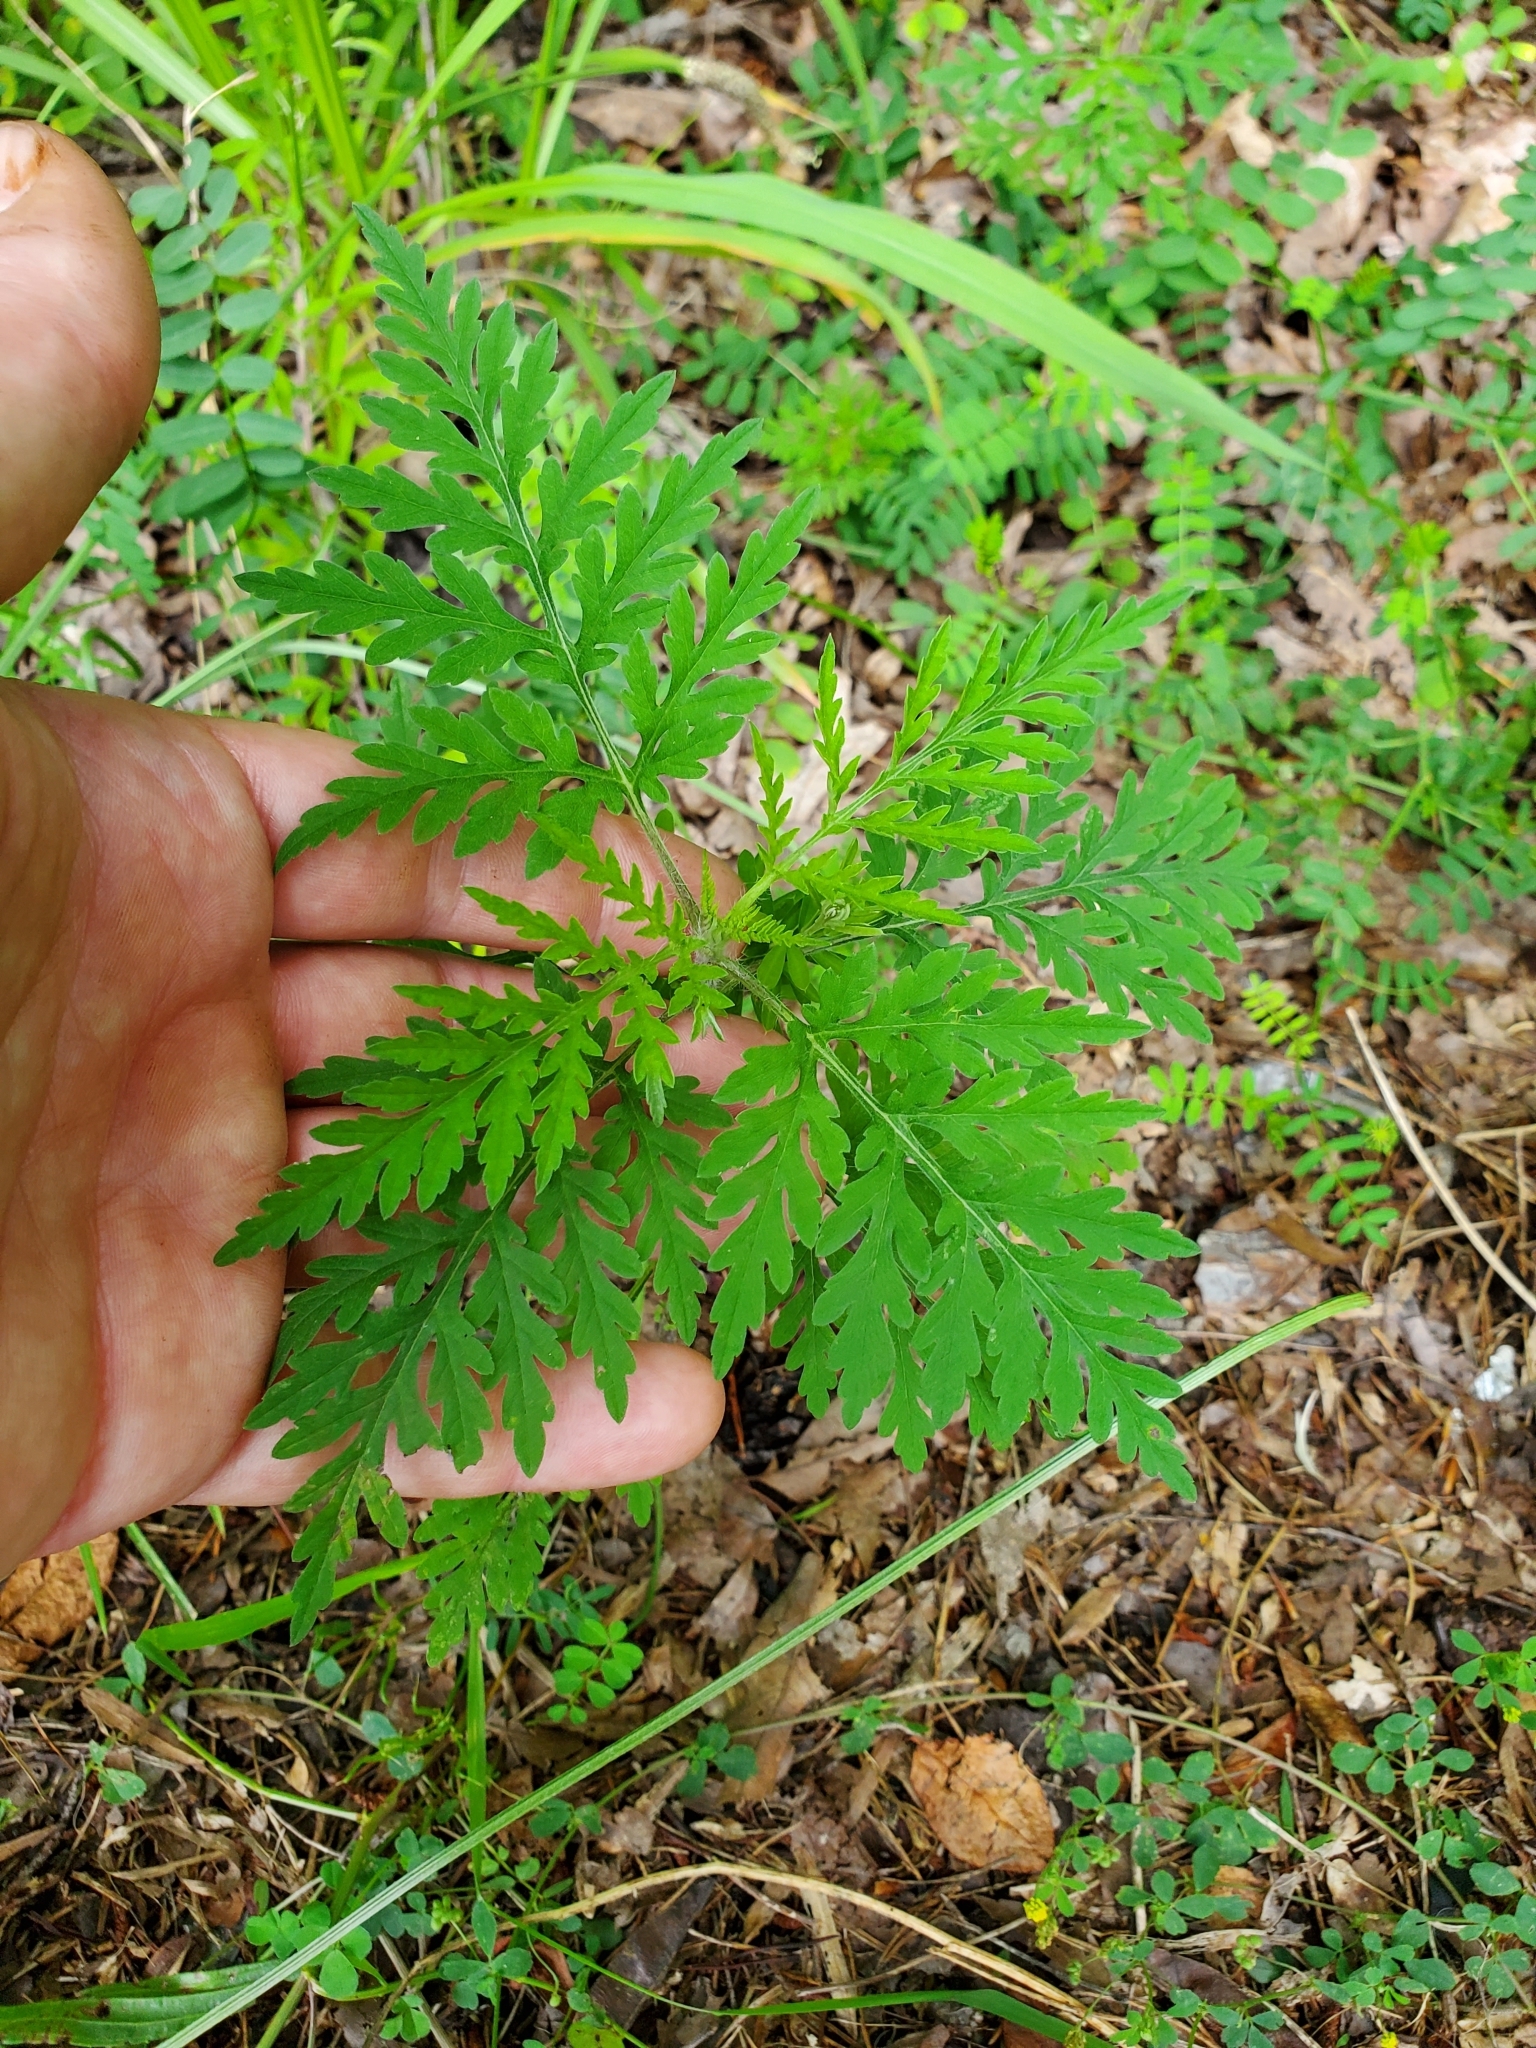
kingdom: Plantae
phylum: Tracheophyta
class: Magnoliopsida
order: Asterales
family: Asteraceae
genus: Ambrosia
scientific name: Ambrosia artemisiifolia
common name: Annual ragweed
